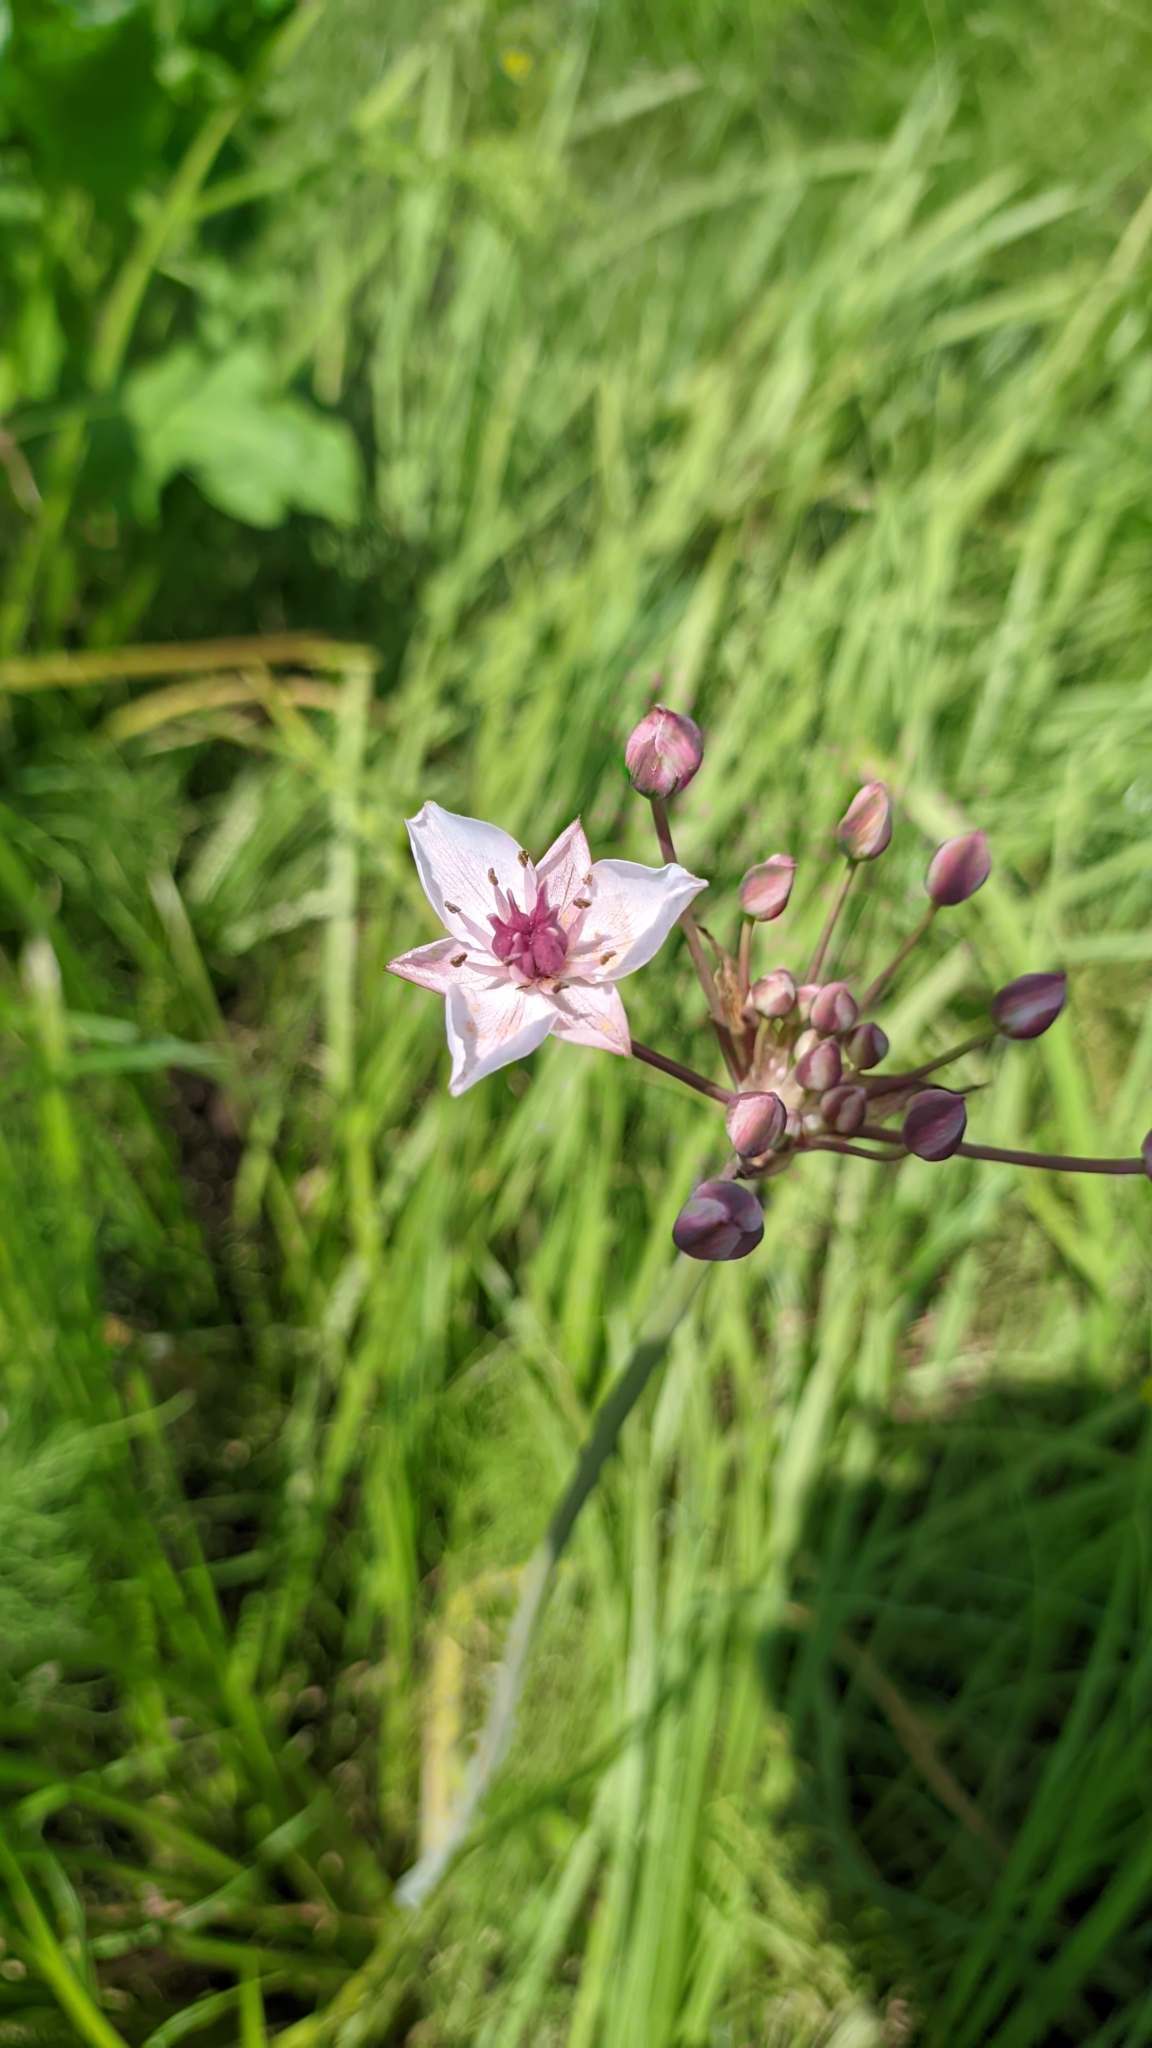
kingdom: Plantae
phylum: Tracheophyta
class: Liliopsida
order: Alismatales
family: Butomaceae
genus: Butomus
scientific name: Butomus umbellatus
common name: Flowering-rush
